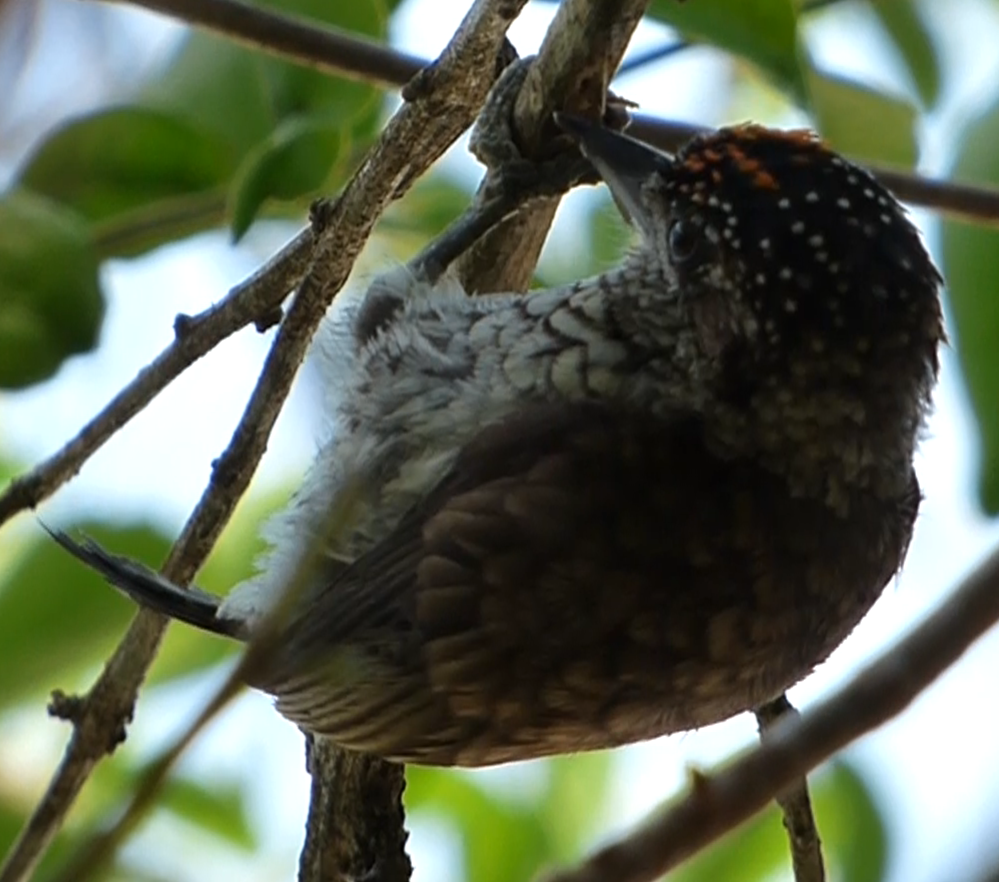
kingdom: Animalia
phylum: Chordata
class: Aves
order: Piciformes
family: Picidae
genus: Picumnus
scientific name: Picumnus squamulatus
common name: Scaled piculet
